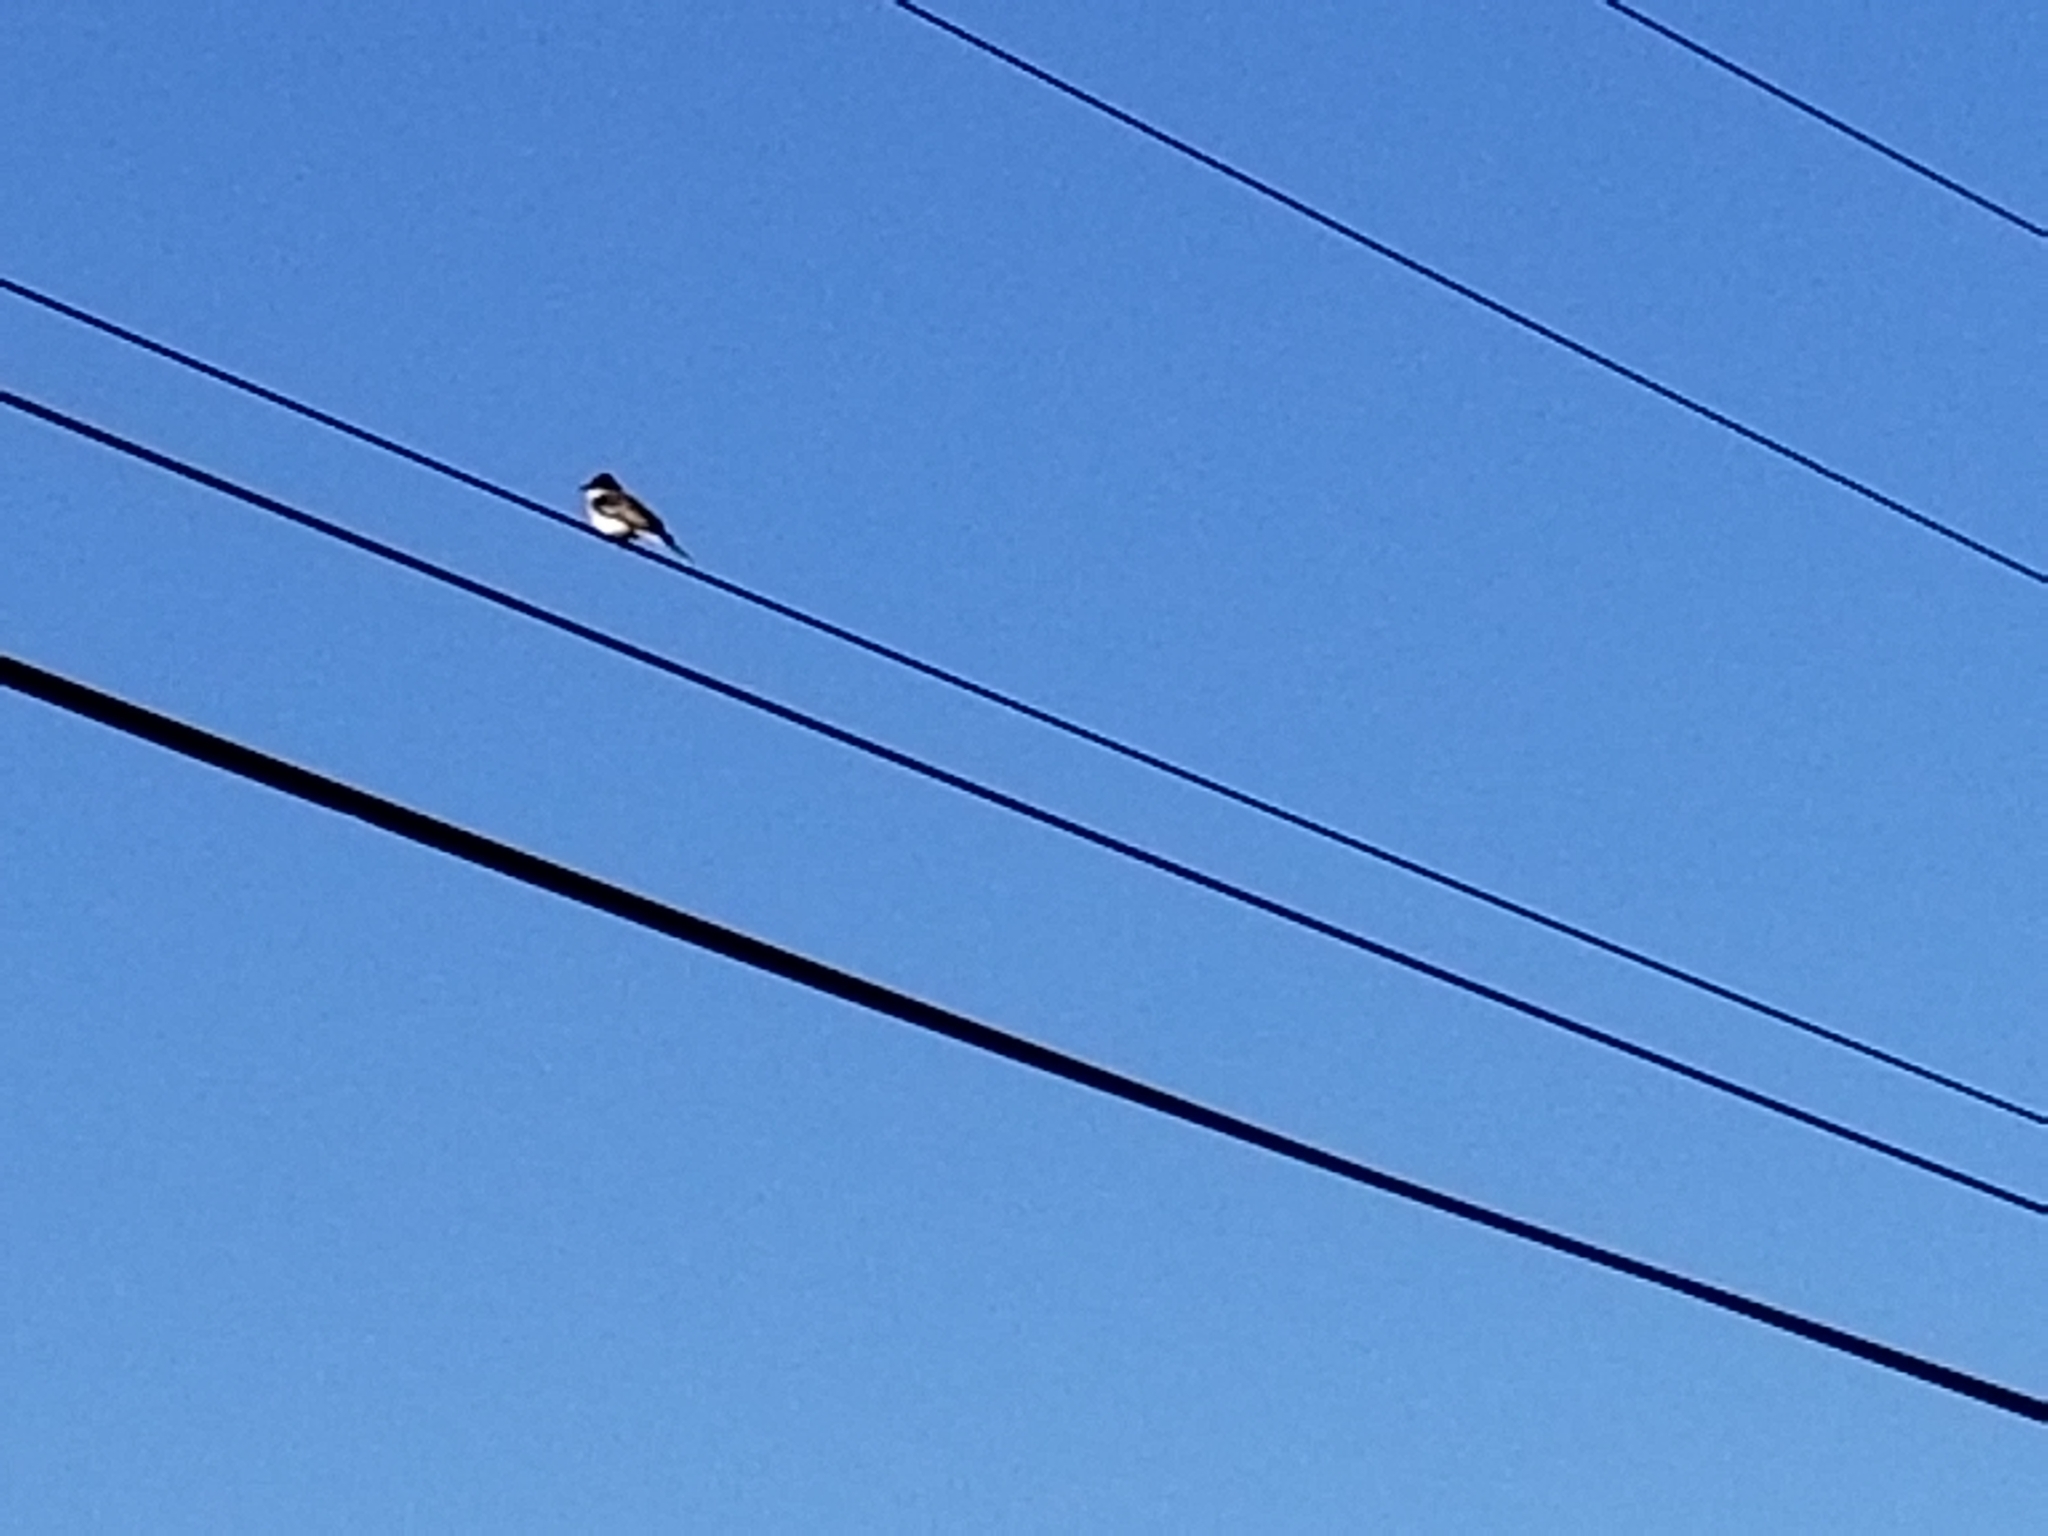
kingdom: Animalia
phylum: Chordata
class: Aves
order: Passeriformes
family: Tyrannidae
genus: Tyrannus
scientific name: Tyrannus tyrannus
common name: Eastern kingbird
